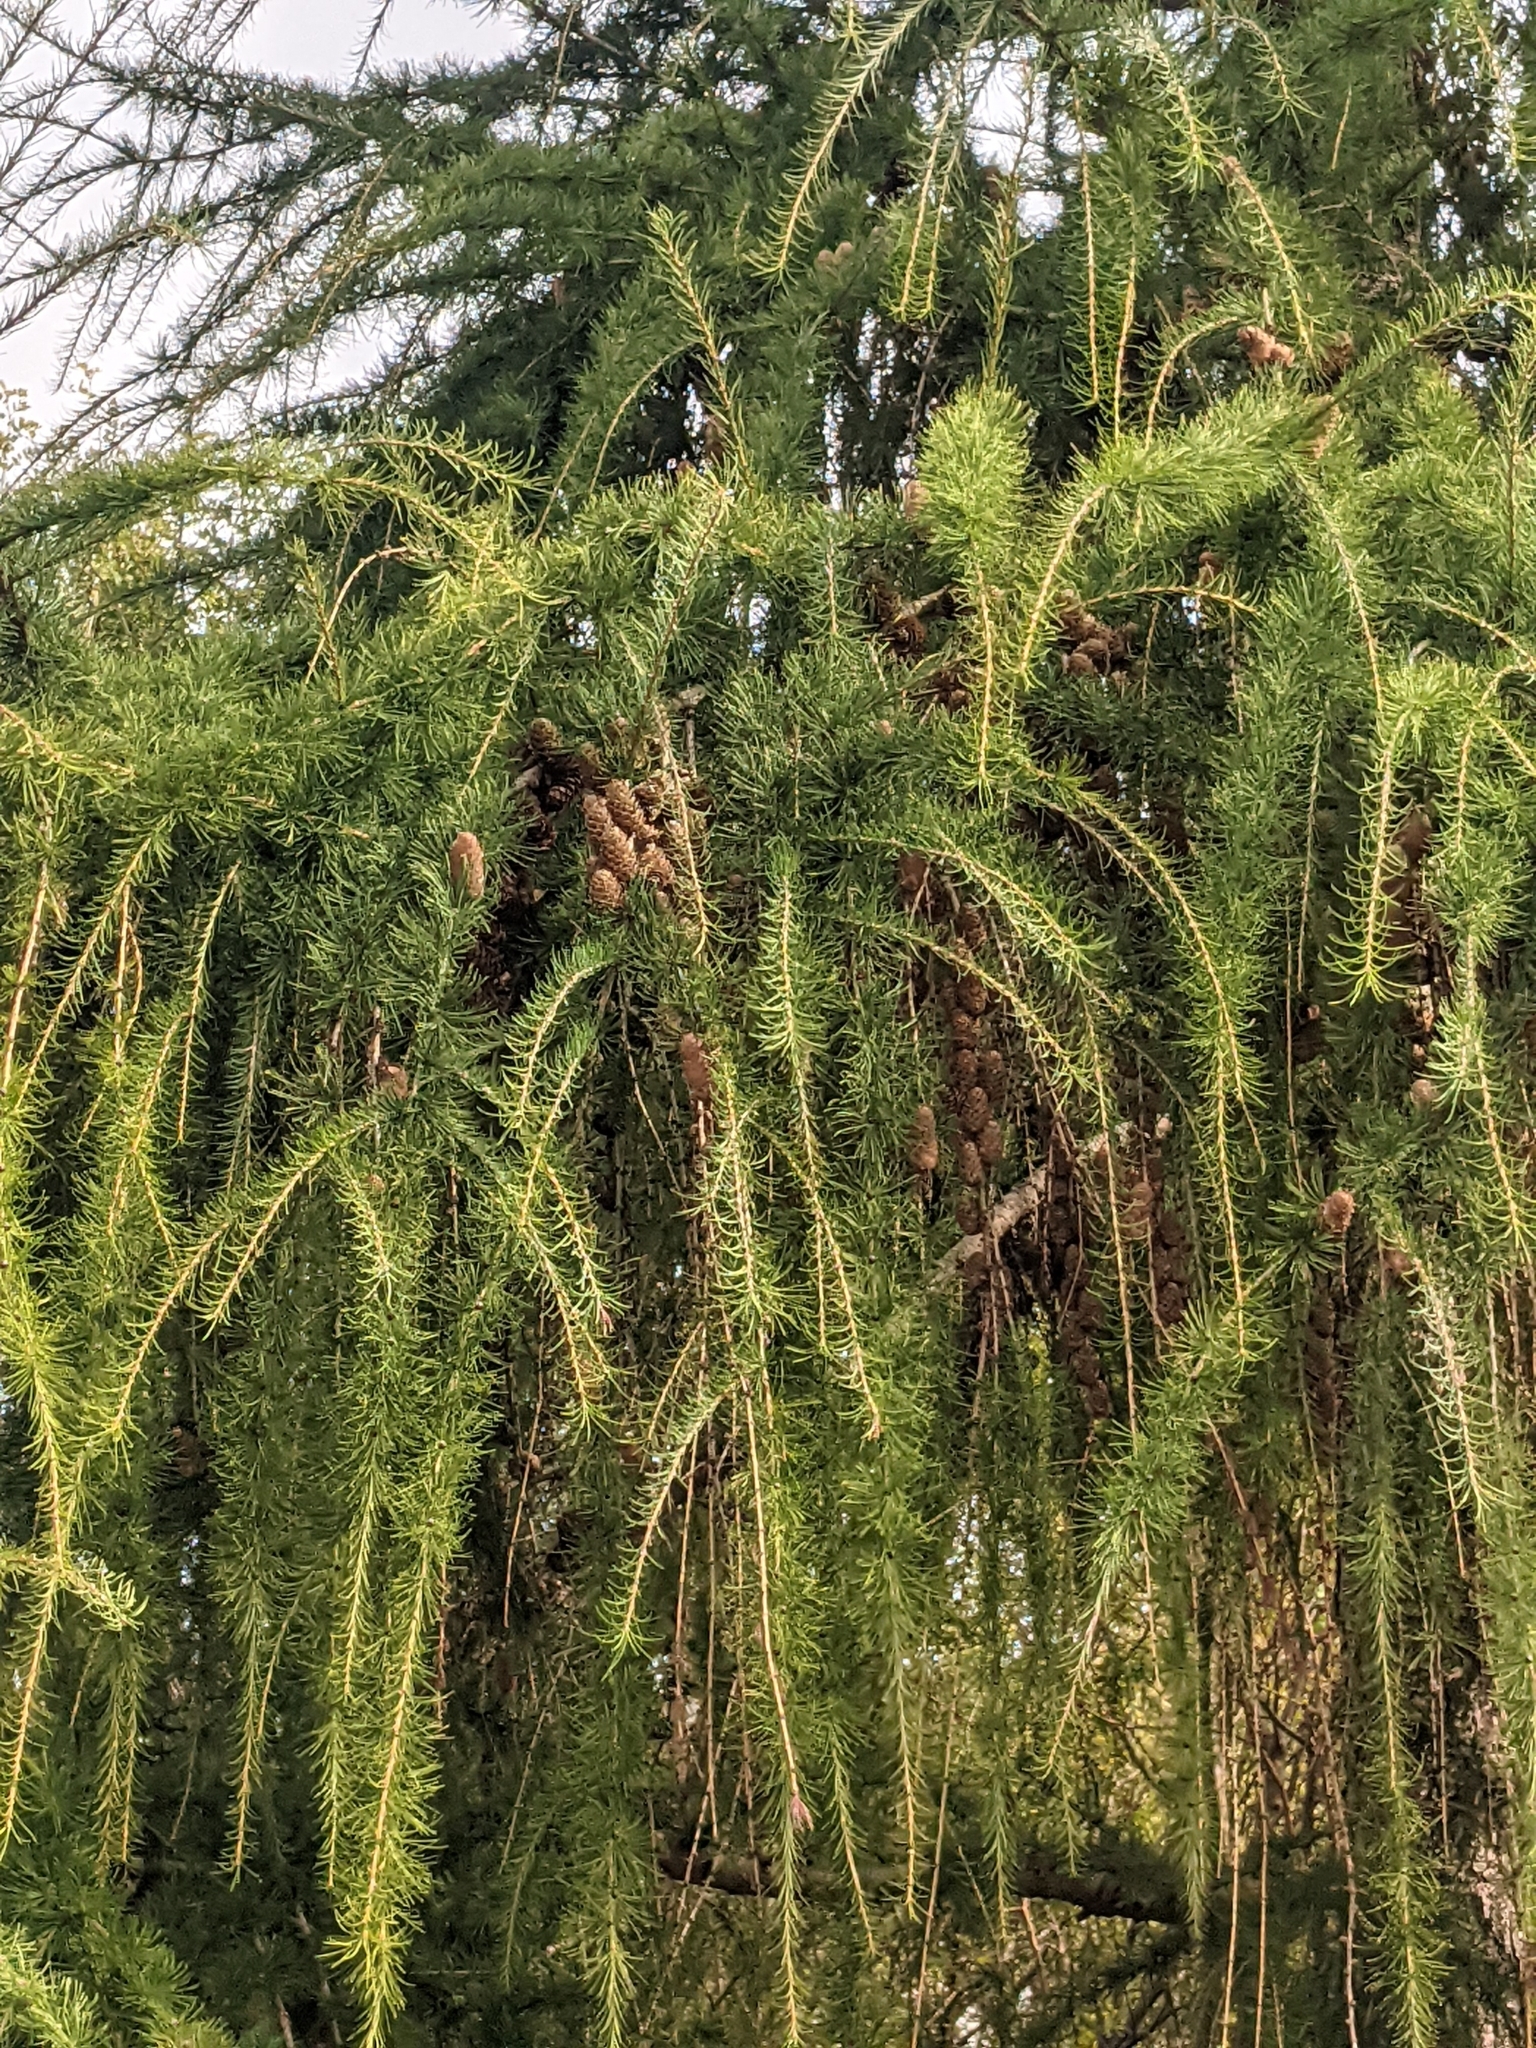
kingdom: Plantae
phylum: Tracheophyta
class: Pinopsida
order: Pinales
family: Pinaceae
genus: Larix
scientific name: Larix decidua
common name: European larch
